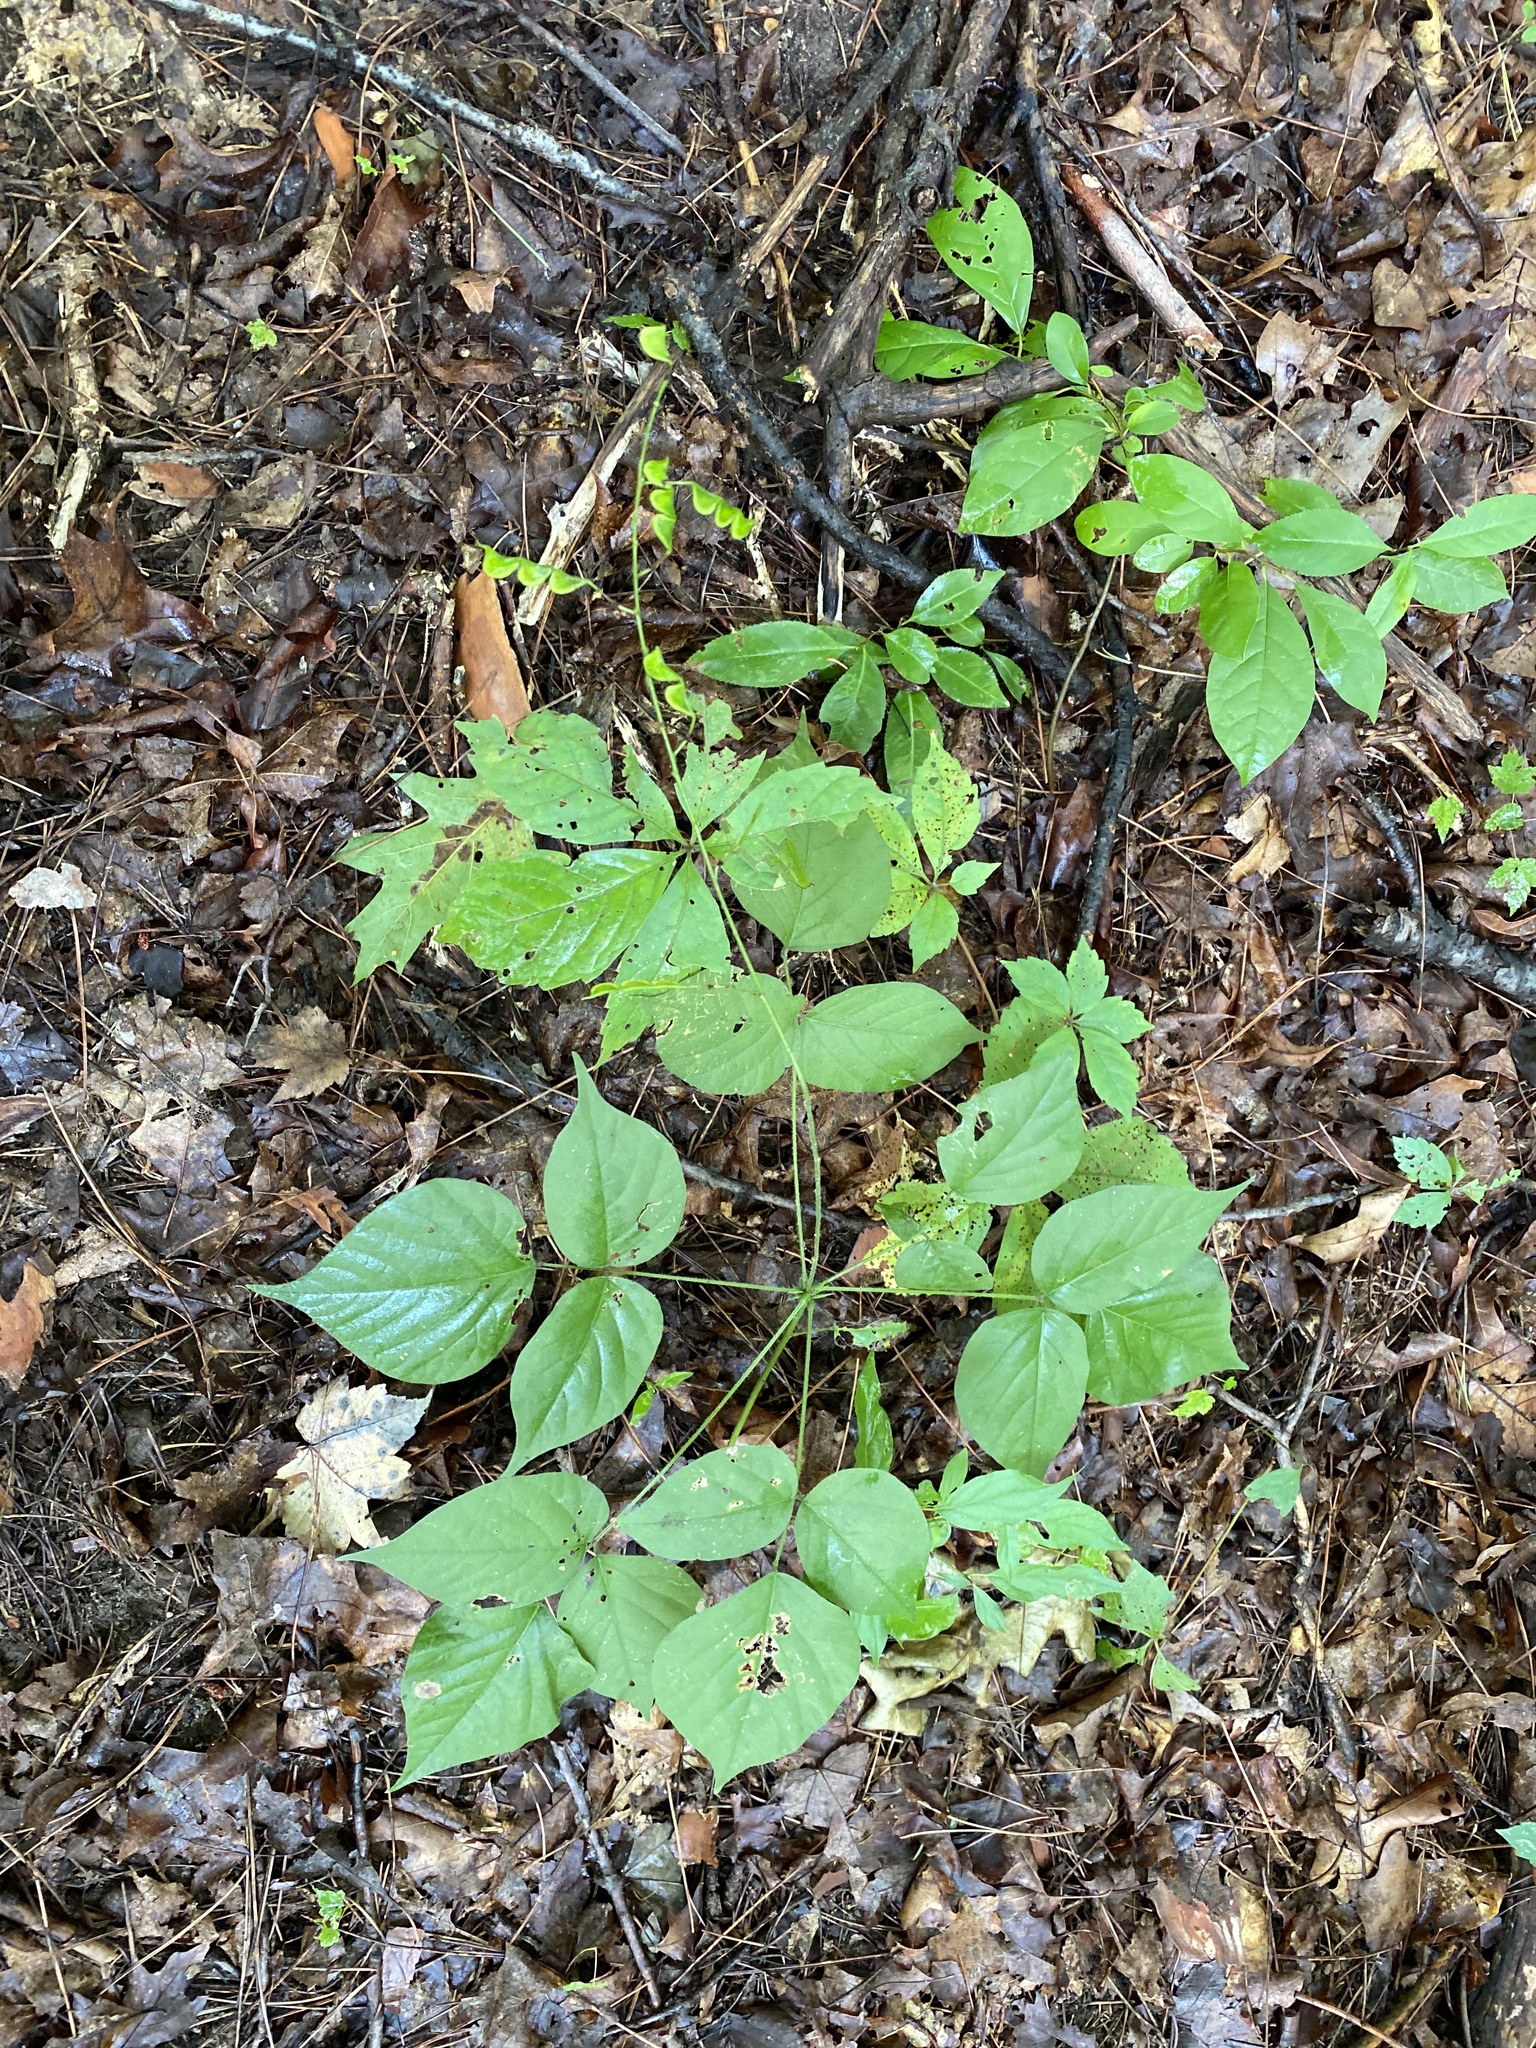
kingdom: Plantae
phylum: Tracheophyta
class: Magnoliopsida
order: Fabales
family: Fabaceae
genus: Hylodesmum
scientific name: Hylodesmum glutinosum
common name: Clustered-leaved tick-trefoil
